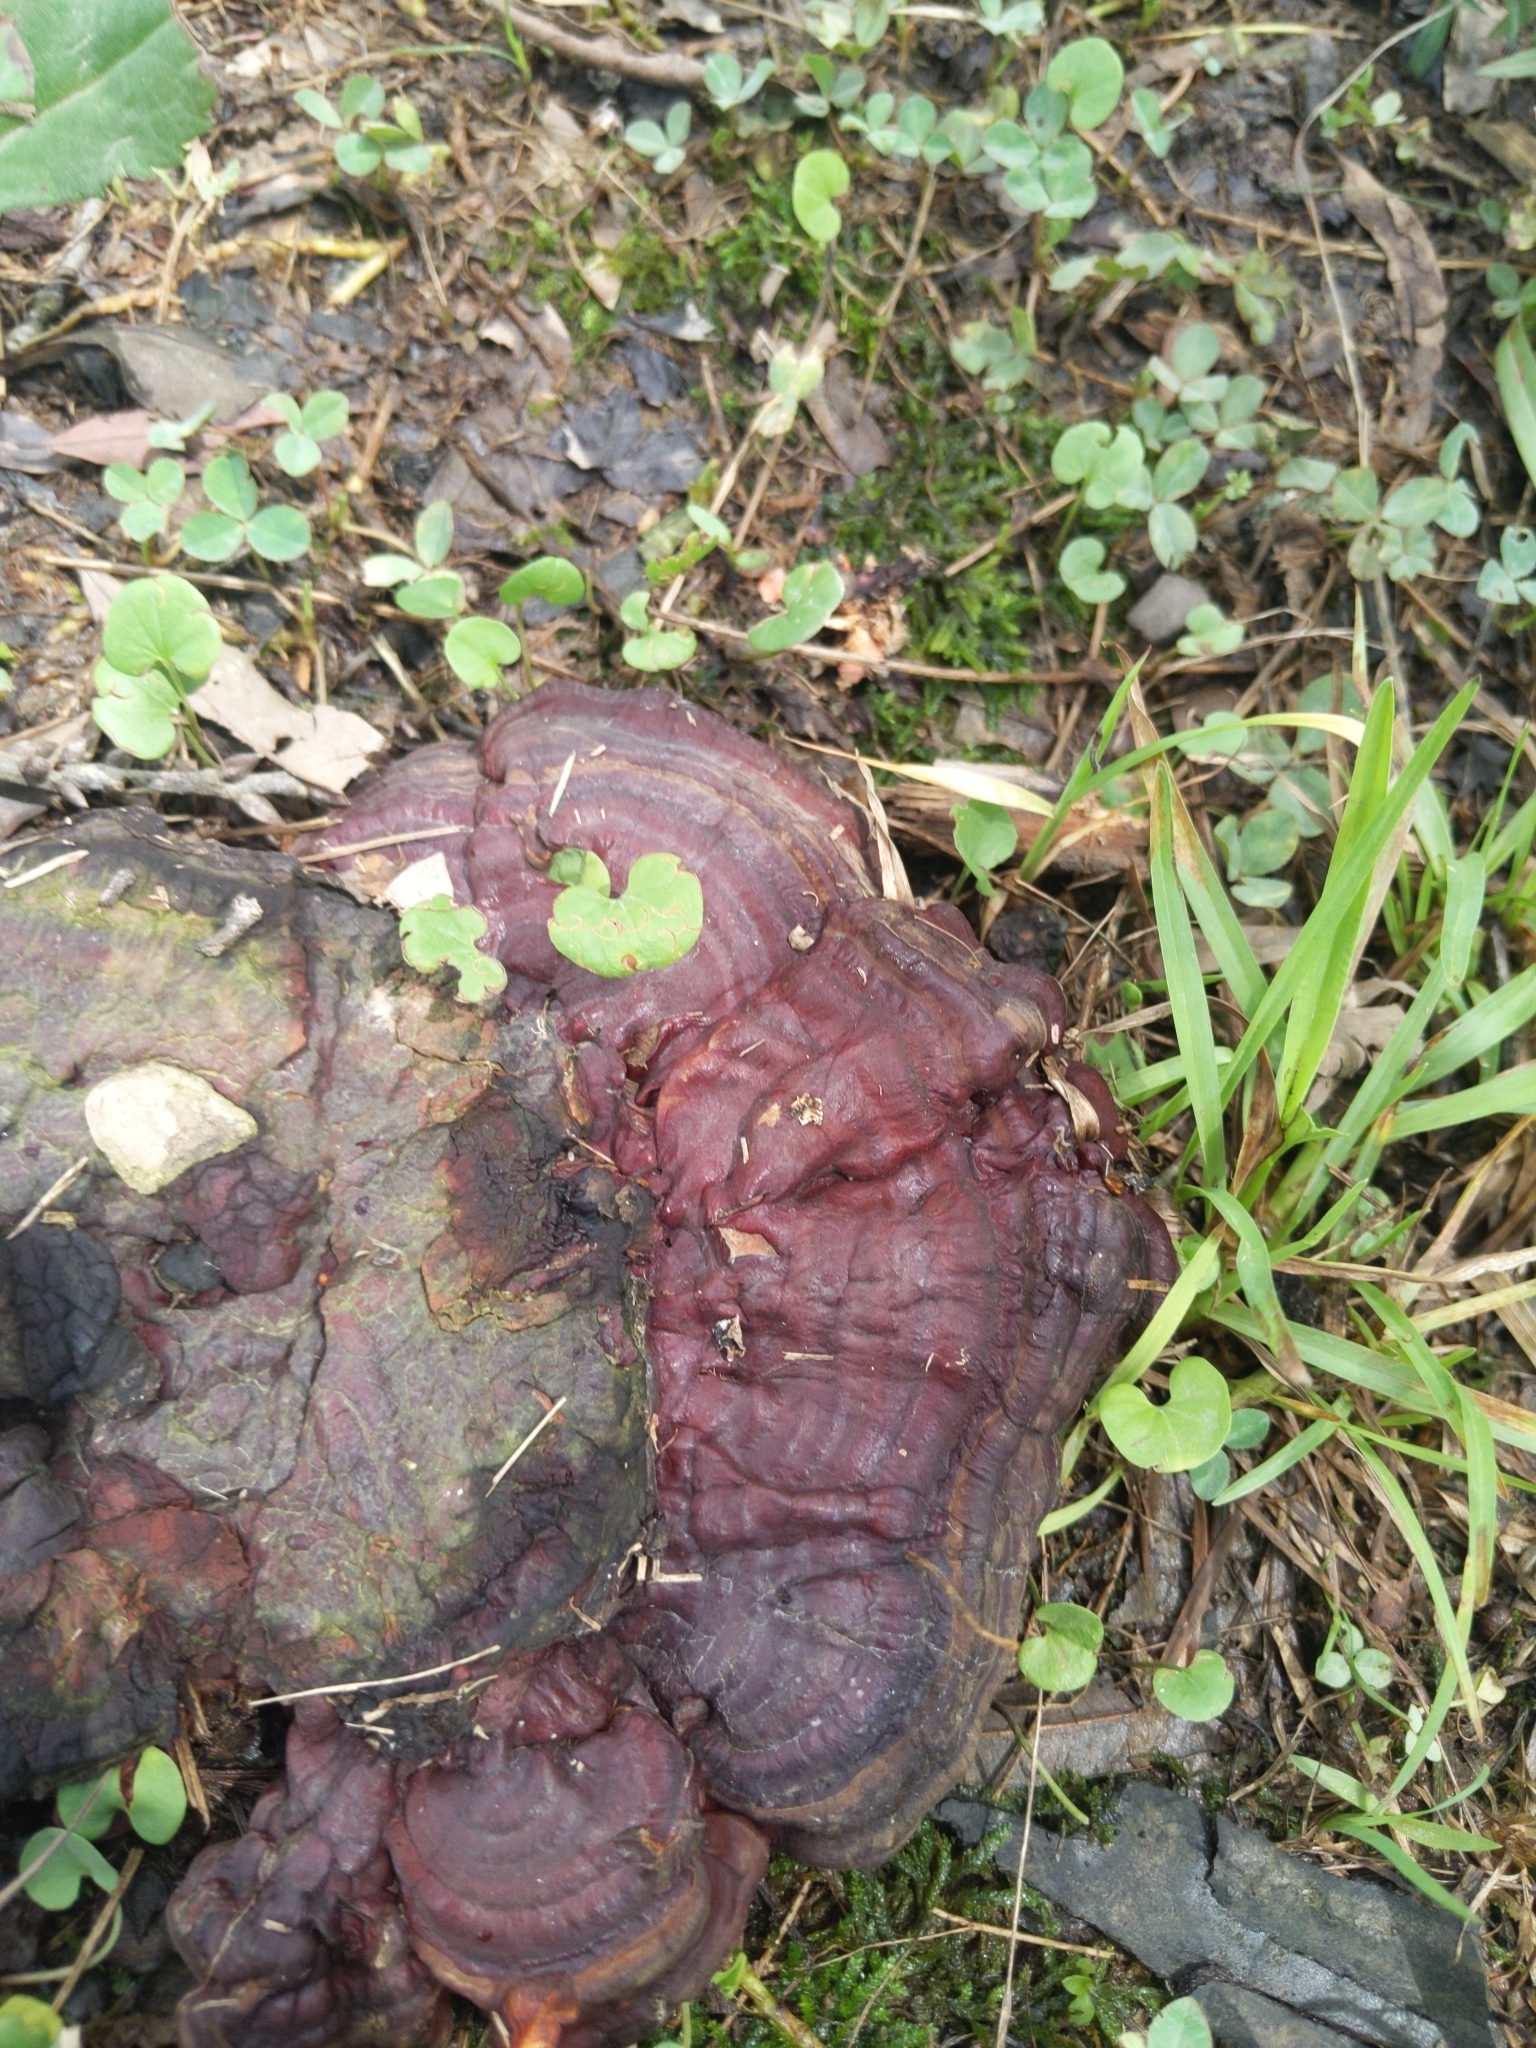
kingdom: Fungi
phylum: Basidiomycota
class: Agaricomycetes
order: Polyporales
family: Polyporaceae
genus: Ganoderma
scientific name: Ganoderma resinaceum
